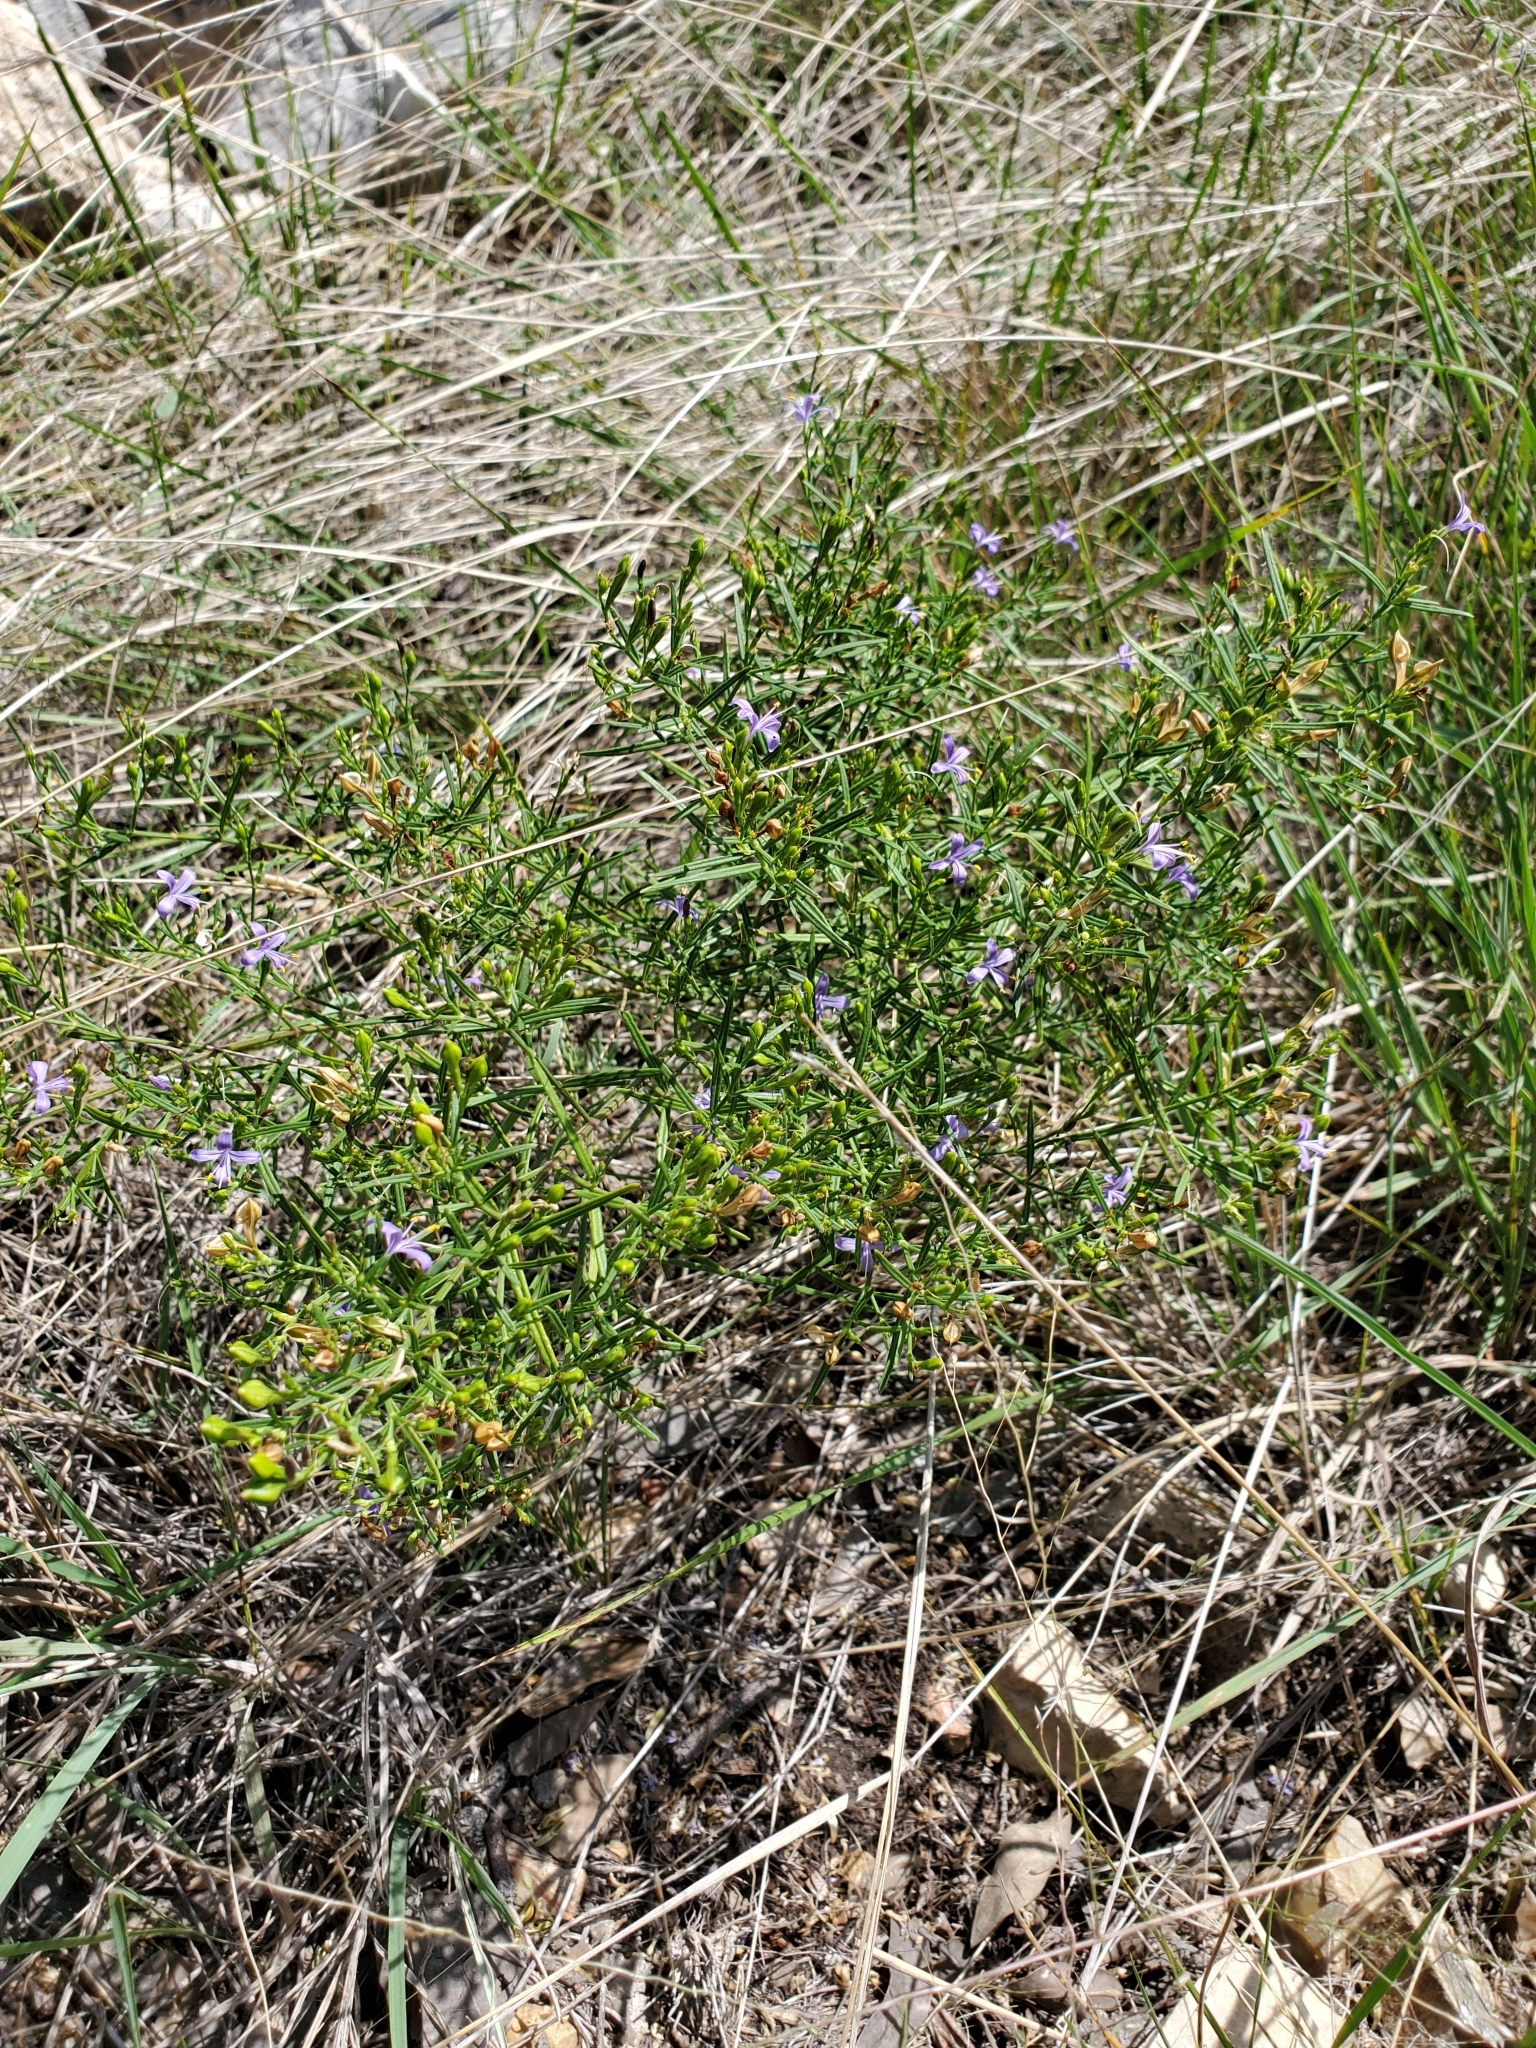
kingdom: Plantae
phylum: Tracheophyta
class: Magnoliopsida
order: Lamiales
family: Acanthaceae
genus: Carlowrightia
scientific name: Carlowrightia linearifolia
